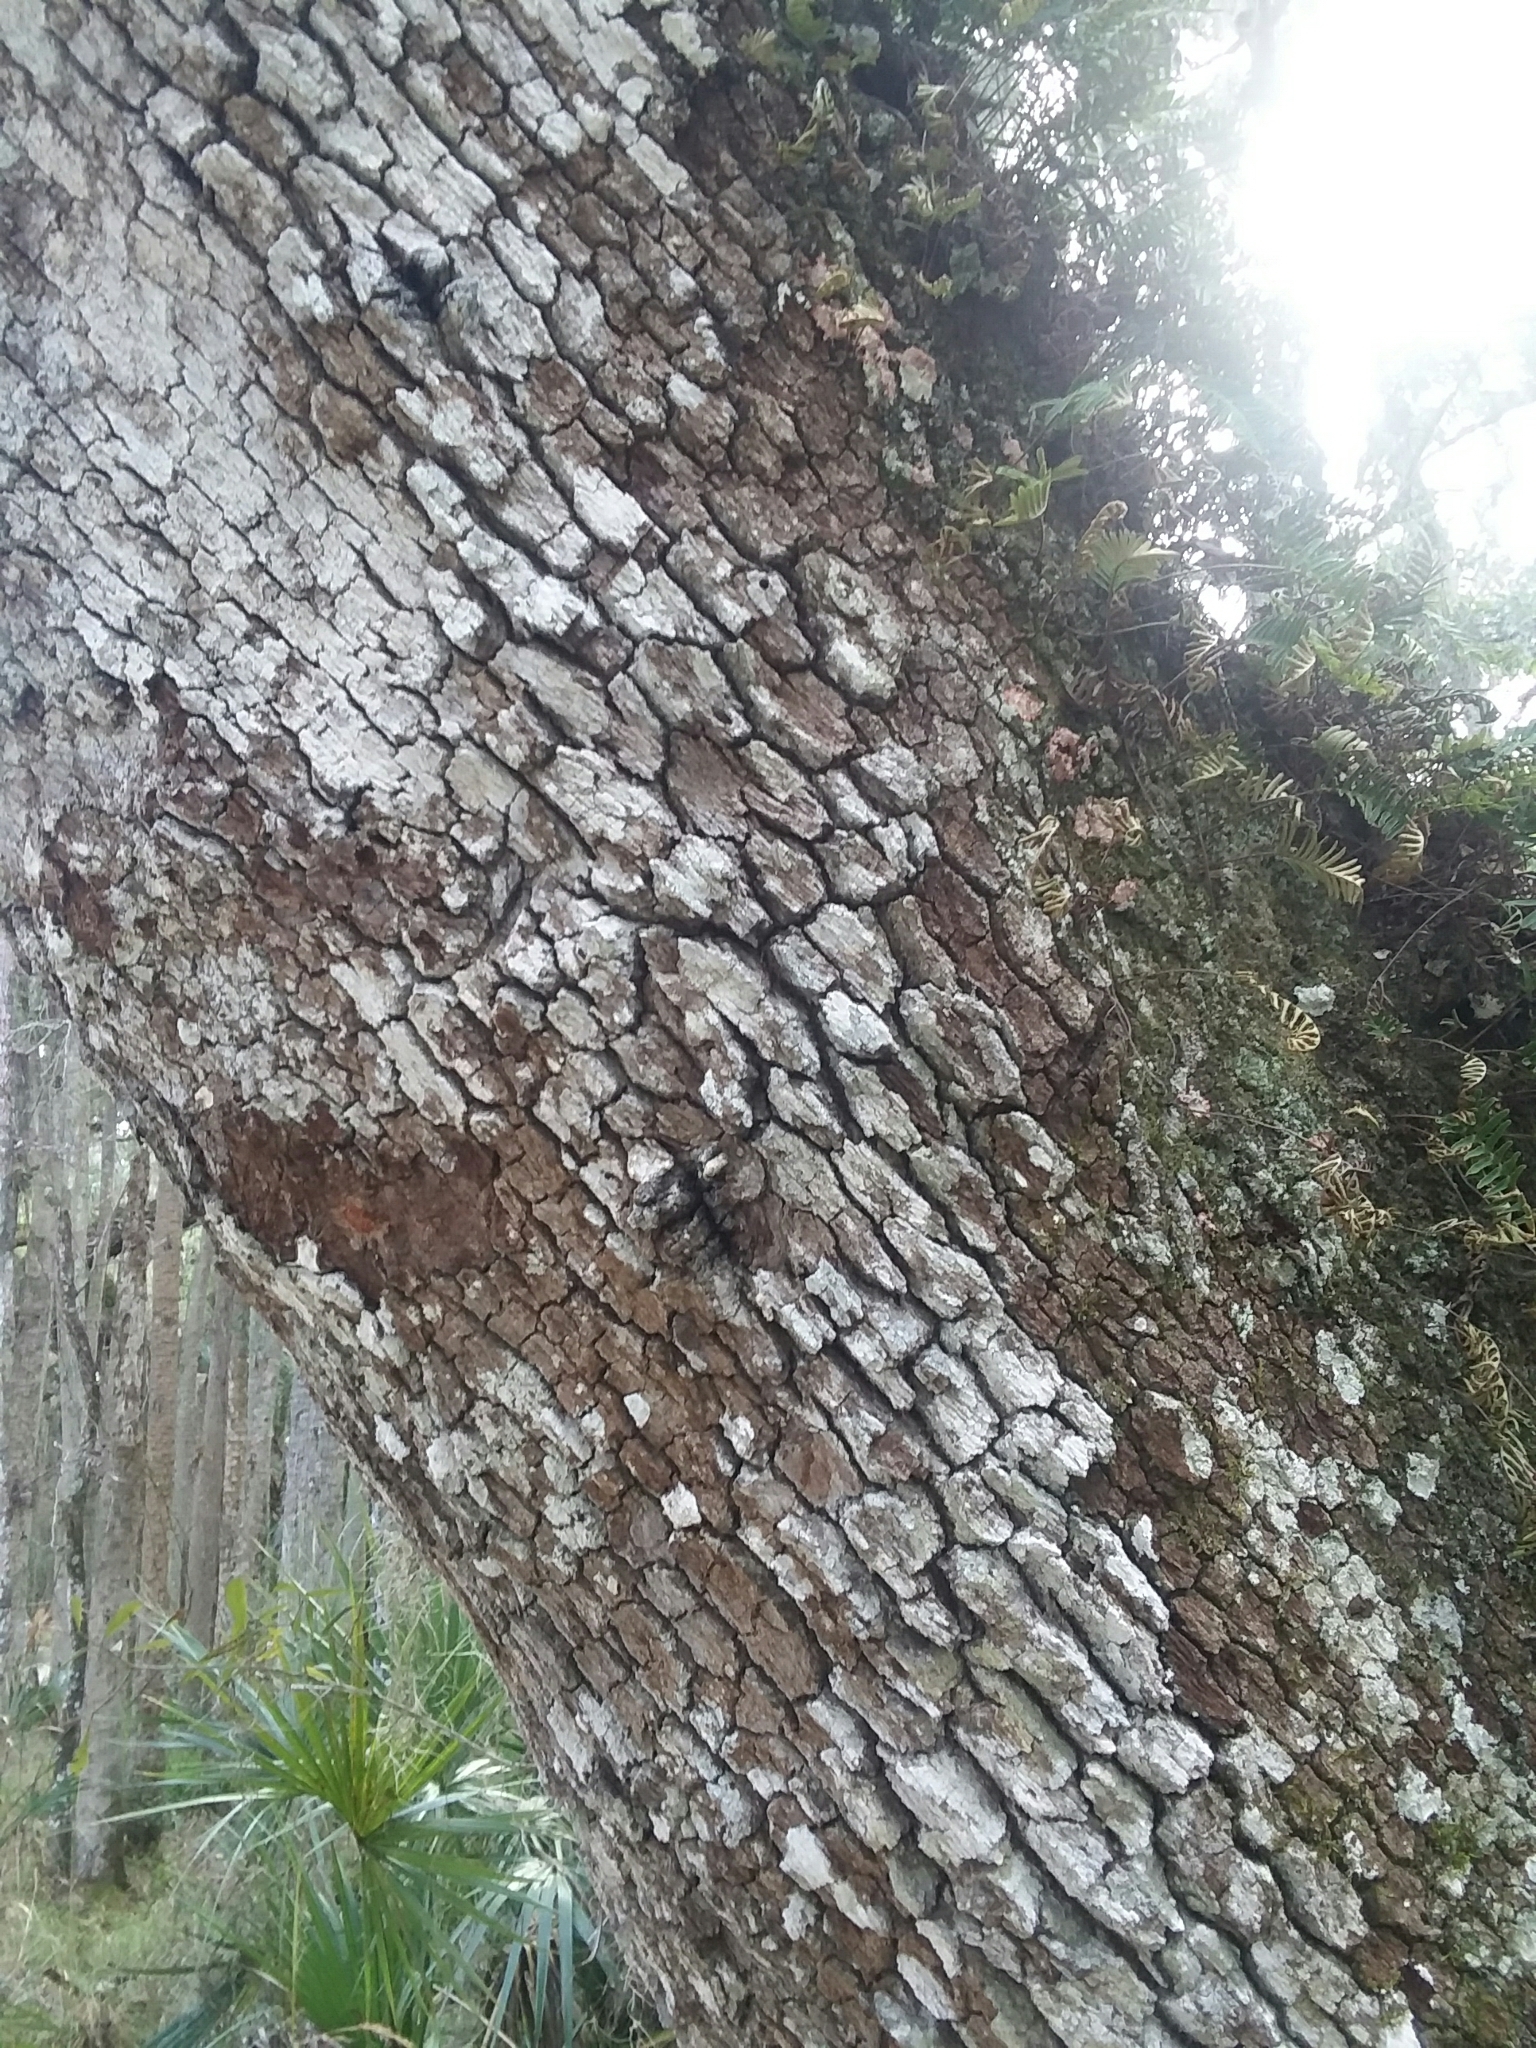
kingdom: Plantae
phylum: Tracheophyta
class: Polypodiopsida
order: Polypodiales
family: Polypodiaceae
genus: Pleopeltis
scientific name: Pleopeltis michauxiana
